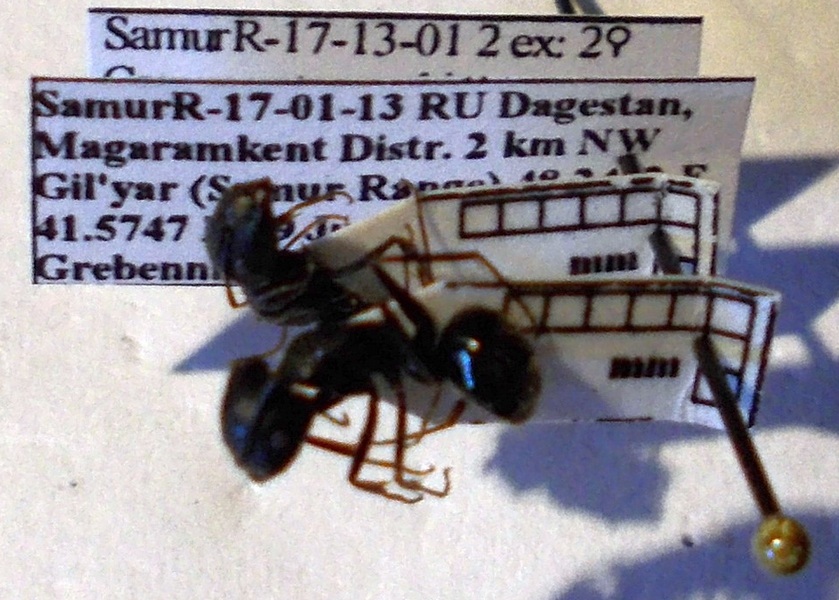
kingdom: Animalia
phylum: Arthropoda
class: Insecta
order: Hymenoptera
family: Formicidae
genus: Camponotus
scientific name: Camponotus aethiops
